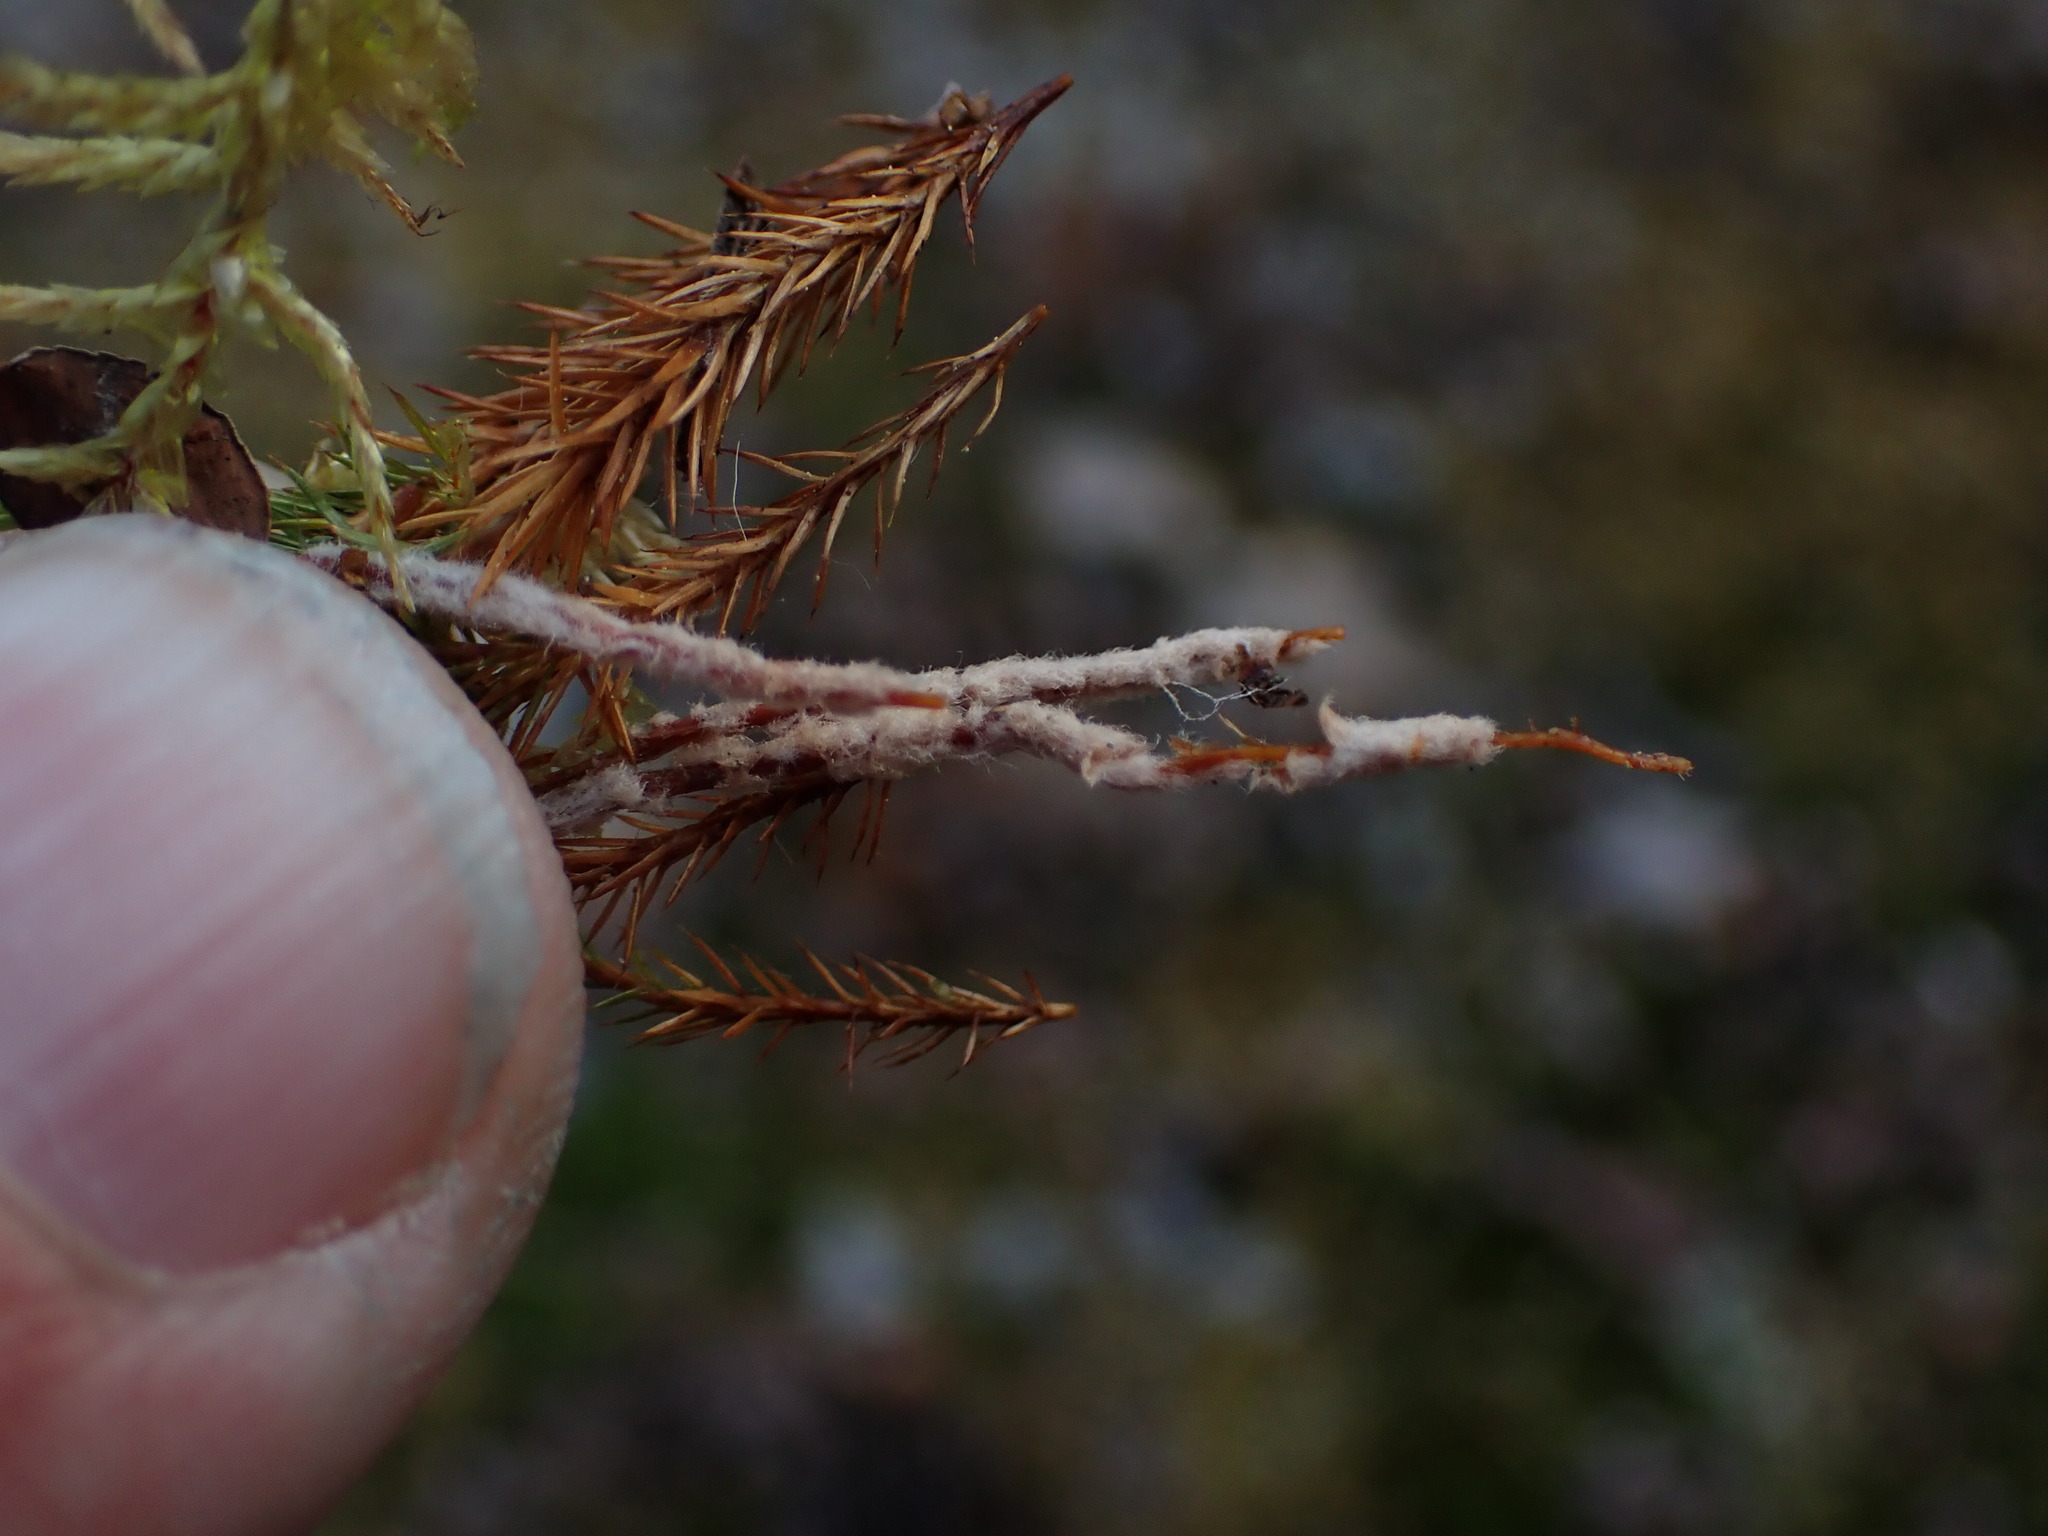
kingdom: Plantae
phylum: Bryophyta
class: Polytrichopsida
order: Polytrichales
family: Polytrichaceae
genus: Polytrichum
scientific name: Polytrichum strictum
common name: Bog haircap moss
